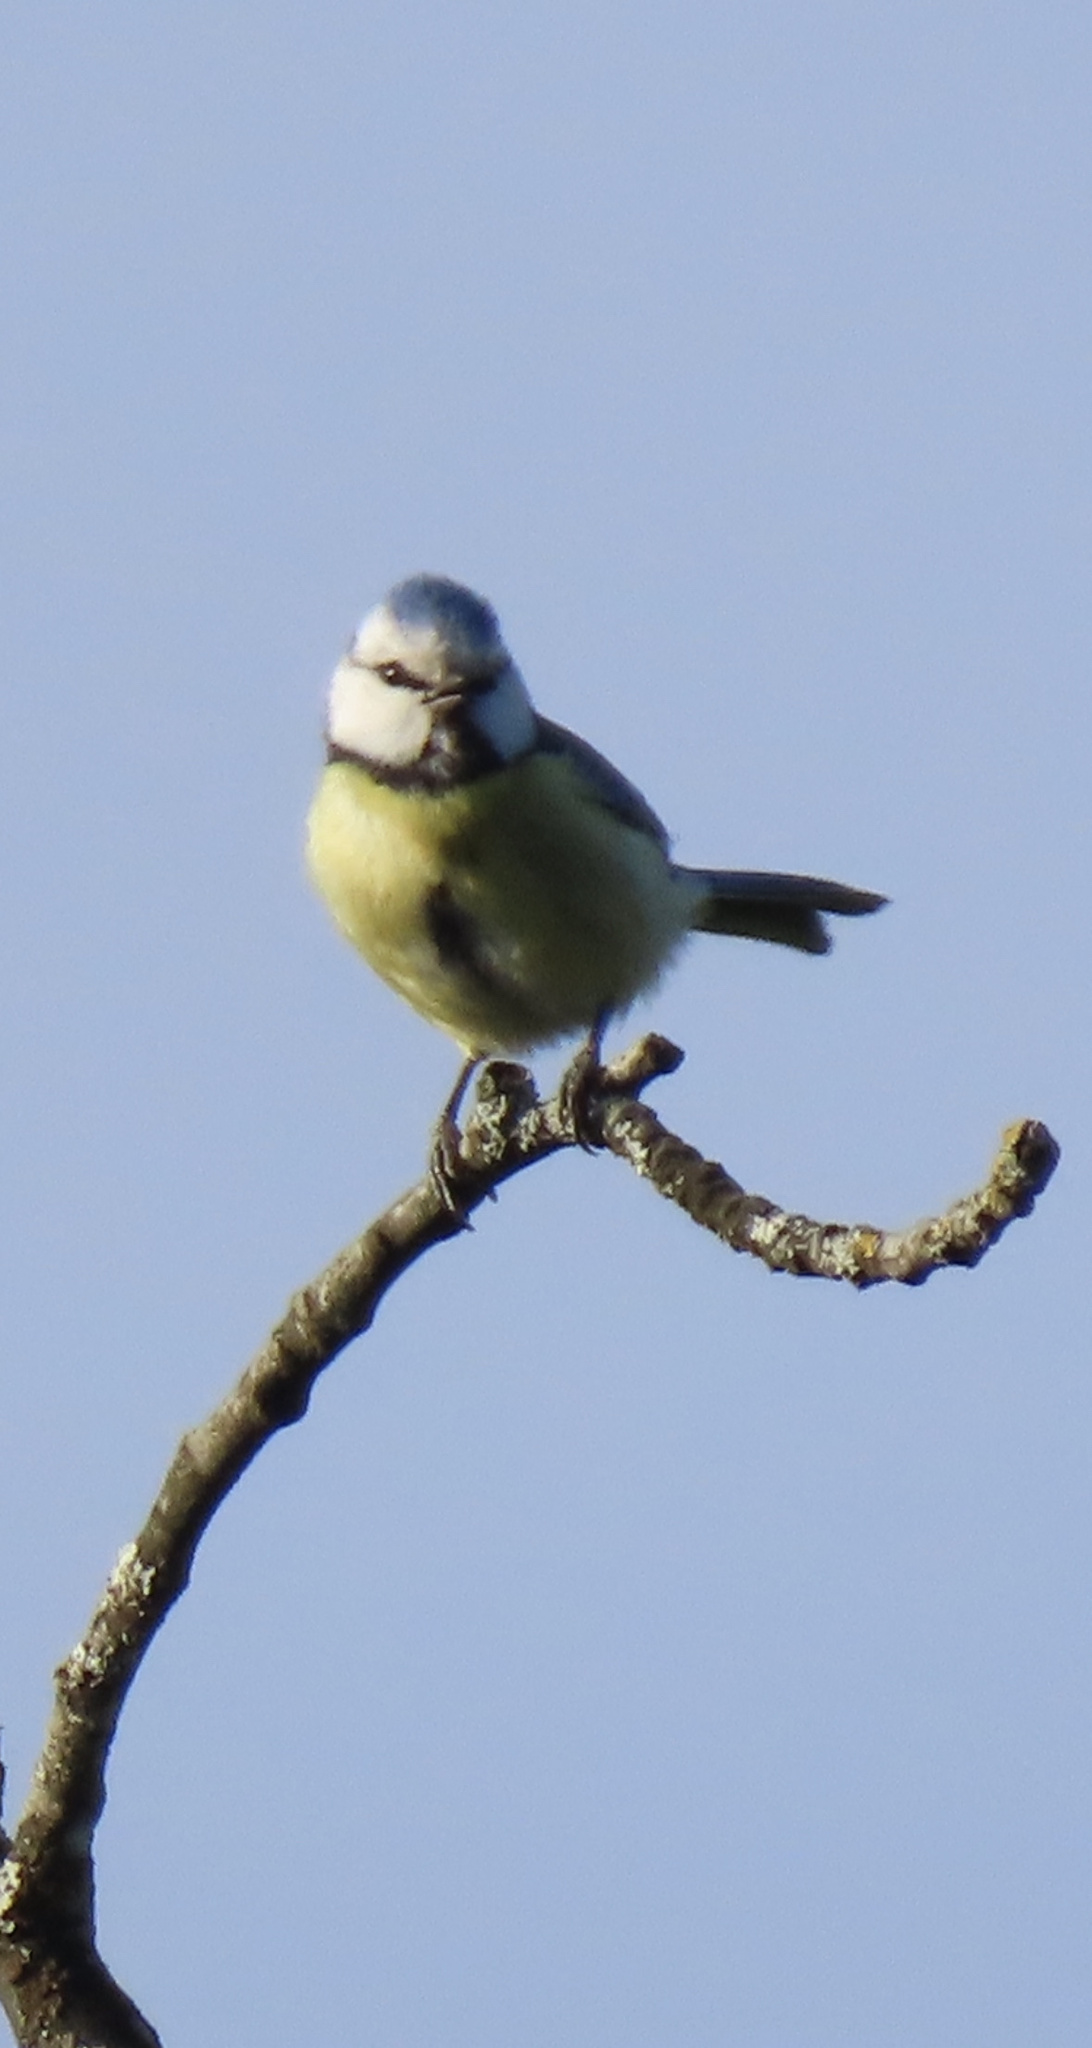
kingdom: Animalia
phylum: Chordata
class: Aves
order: Passeriformes
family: Paridae
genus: Cyanistes
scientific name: Cyanistes caeruleus
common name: Eurasian blue tit
